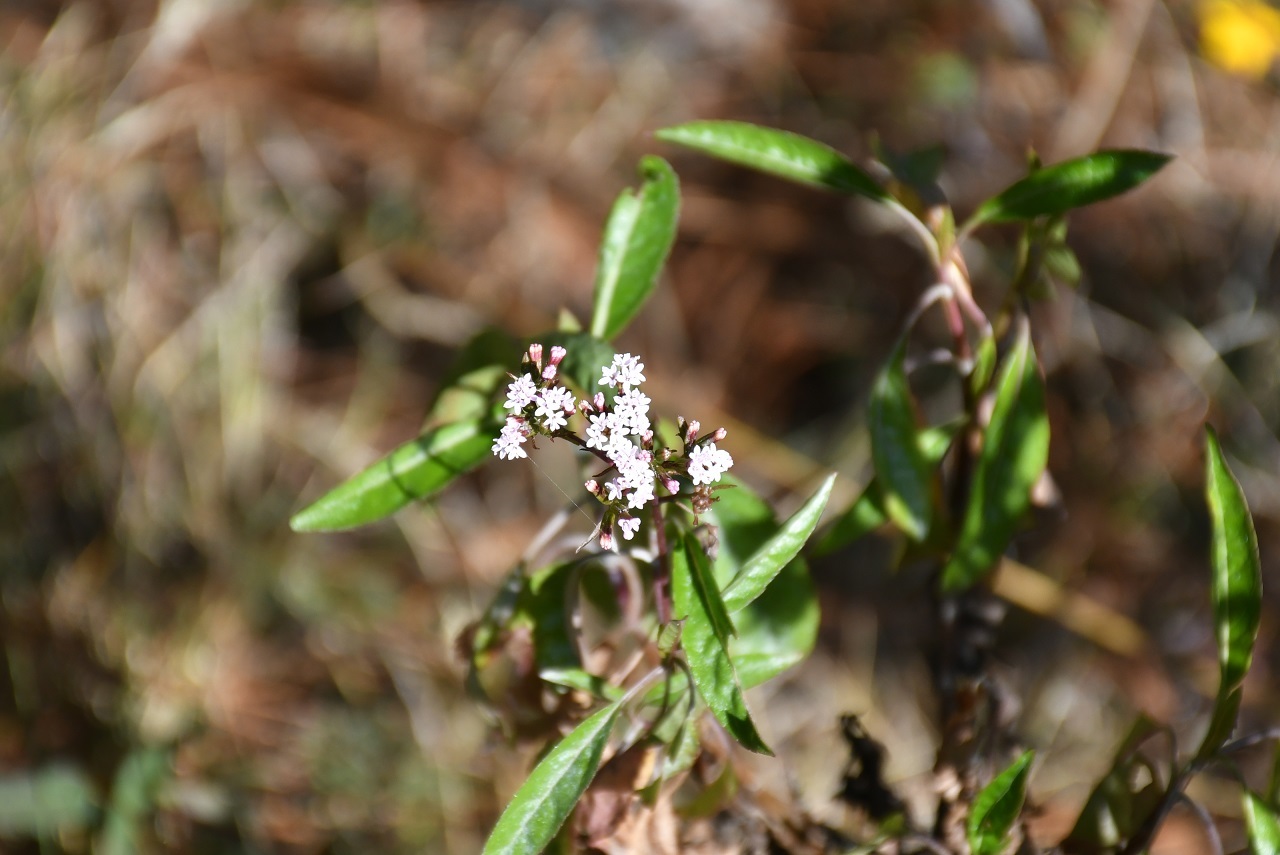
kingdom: Plantae
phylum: Tracheophyta
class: Magnoliopsida
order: Asterales
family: Asteraceae
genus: Stevia
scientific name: Stevia lucida
